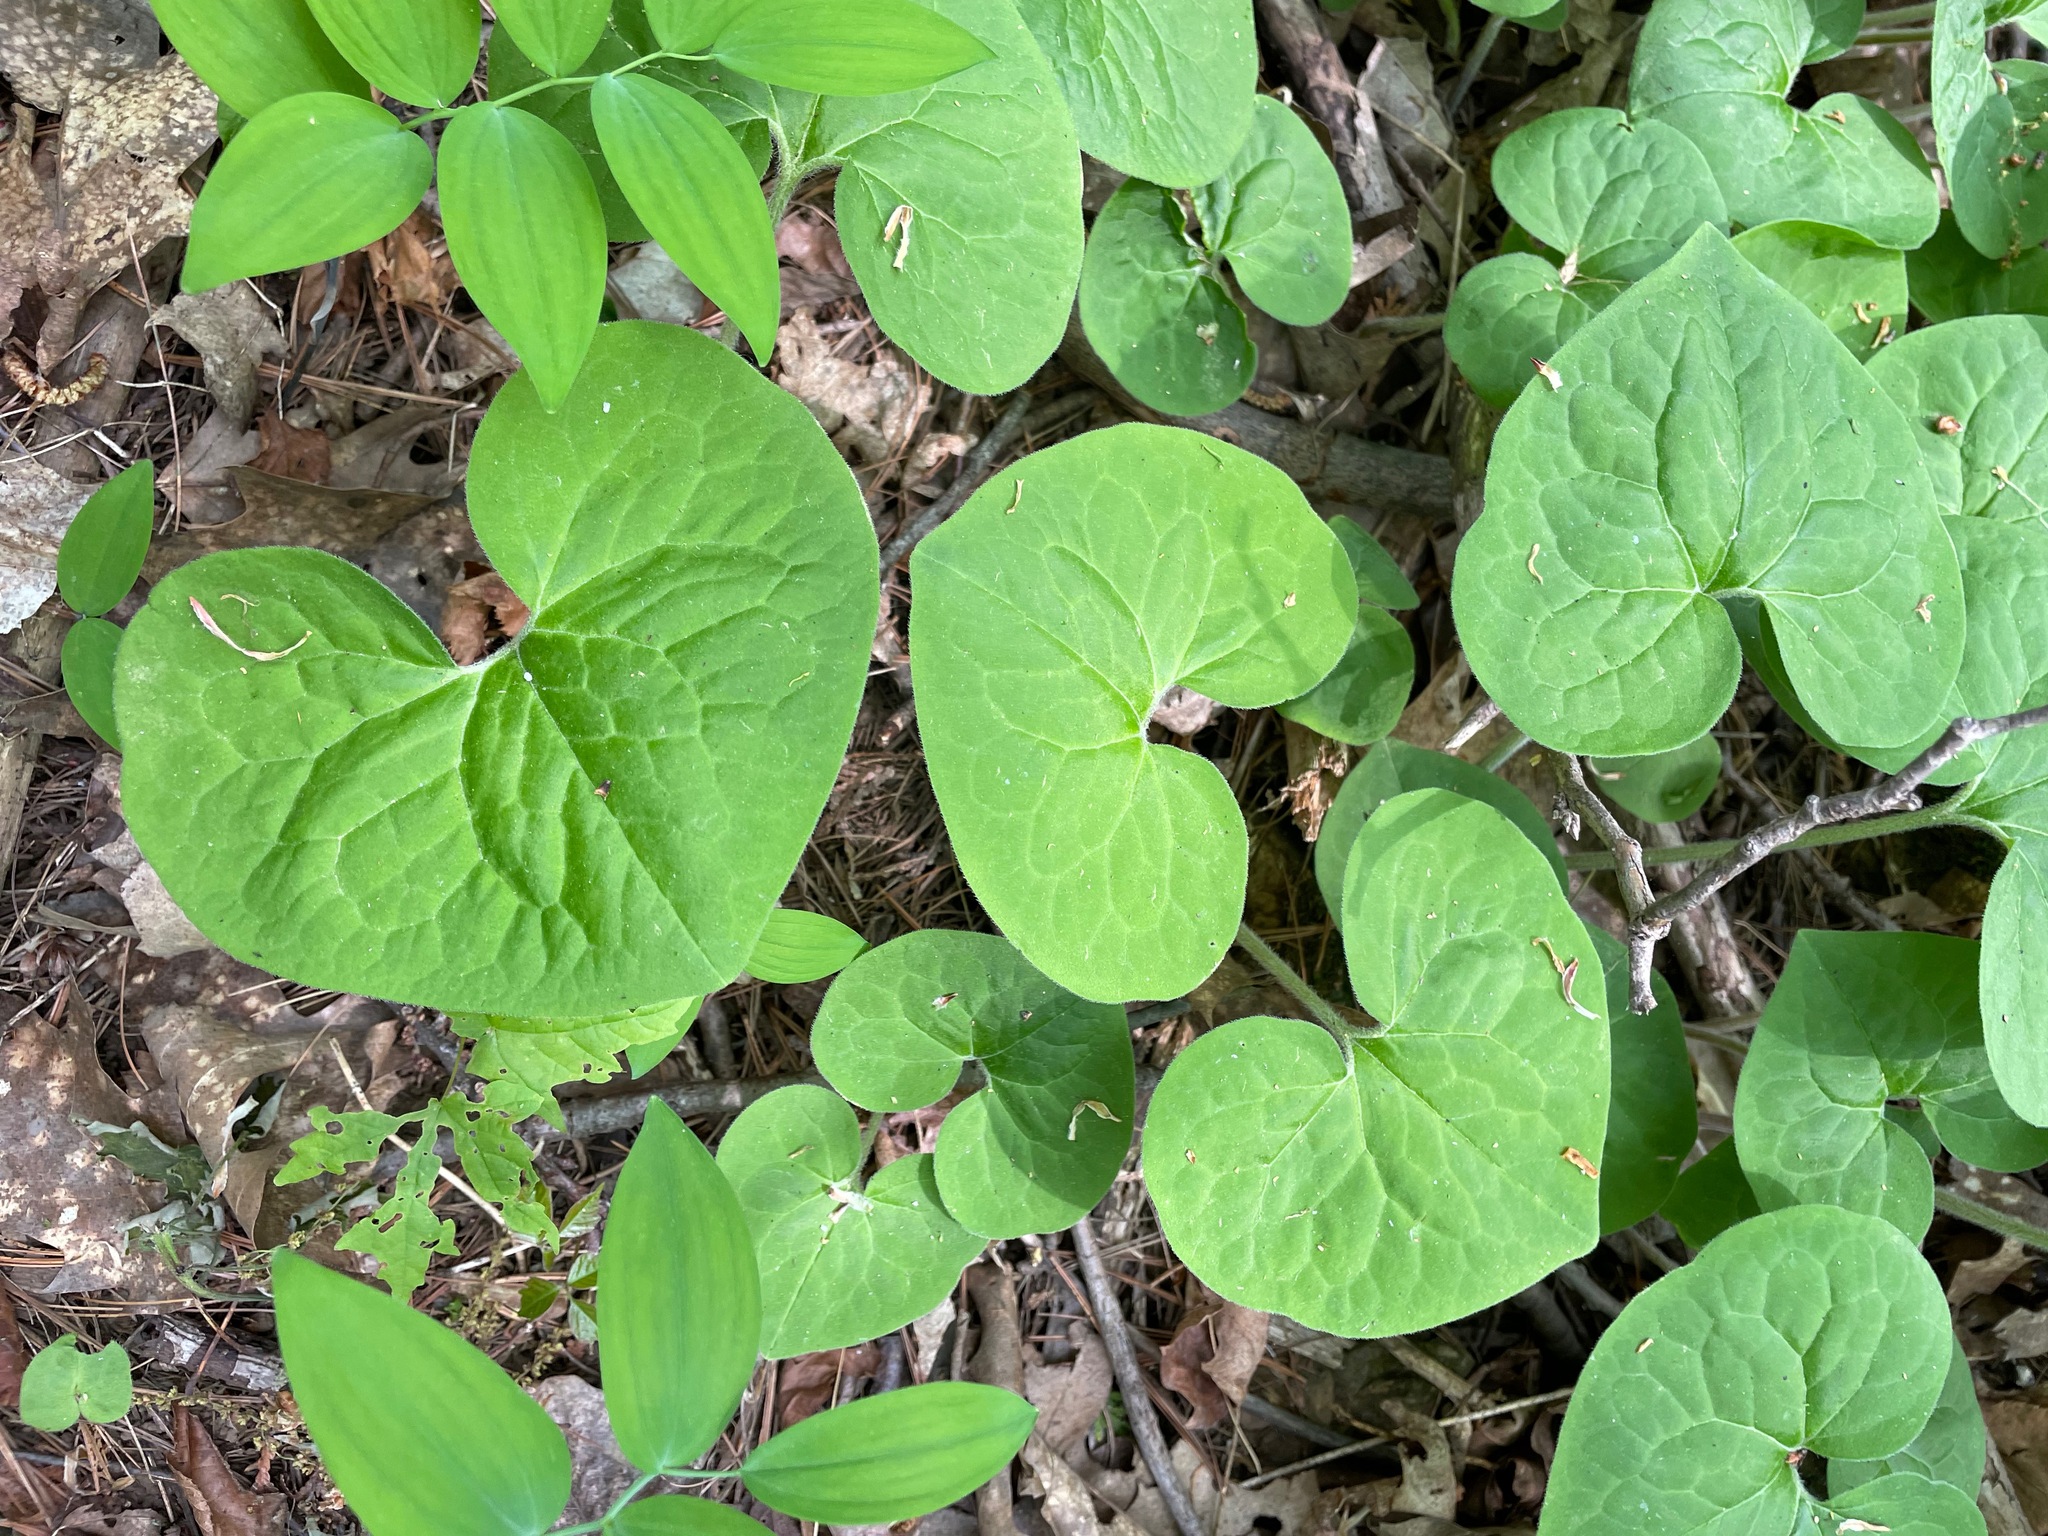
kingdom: Plantae
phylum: Tracheophyta
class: Magnoliopsida
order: Piperales
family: Aristolochiaceae
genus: Asarum
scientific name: Asarum canadense
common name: Wild ginger
